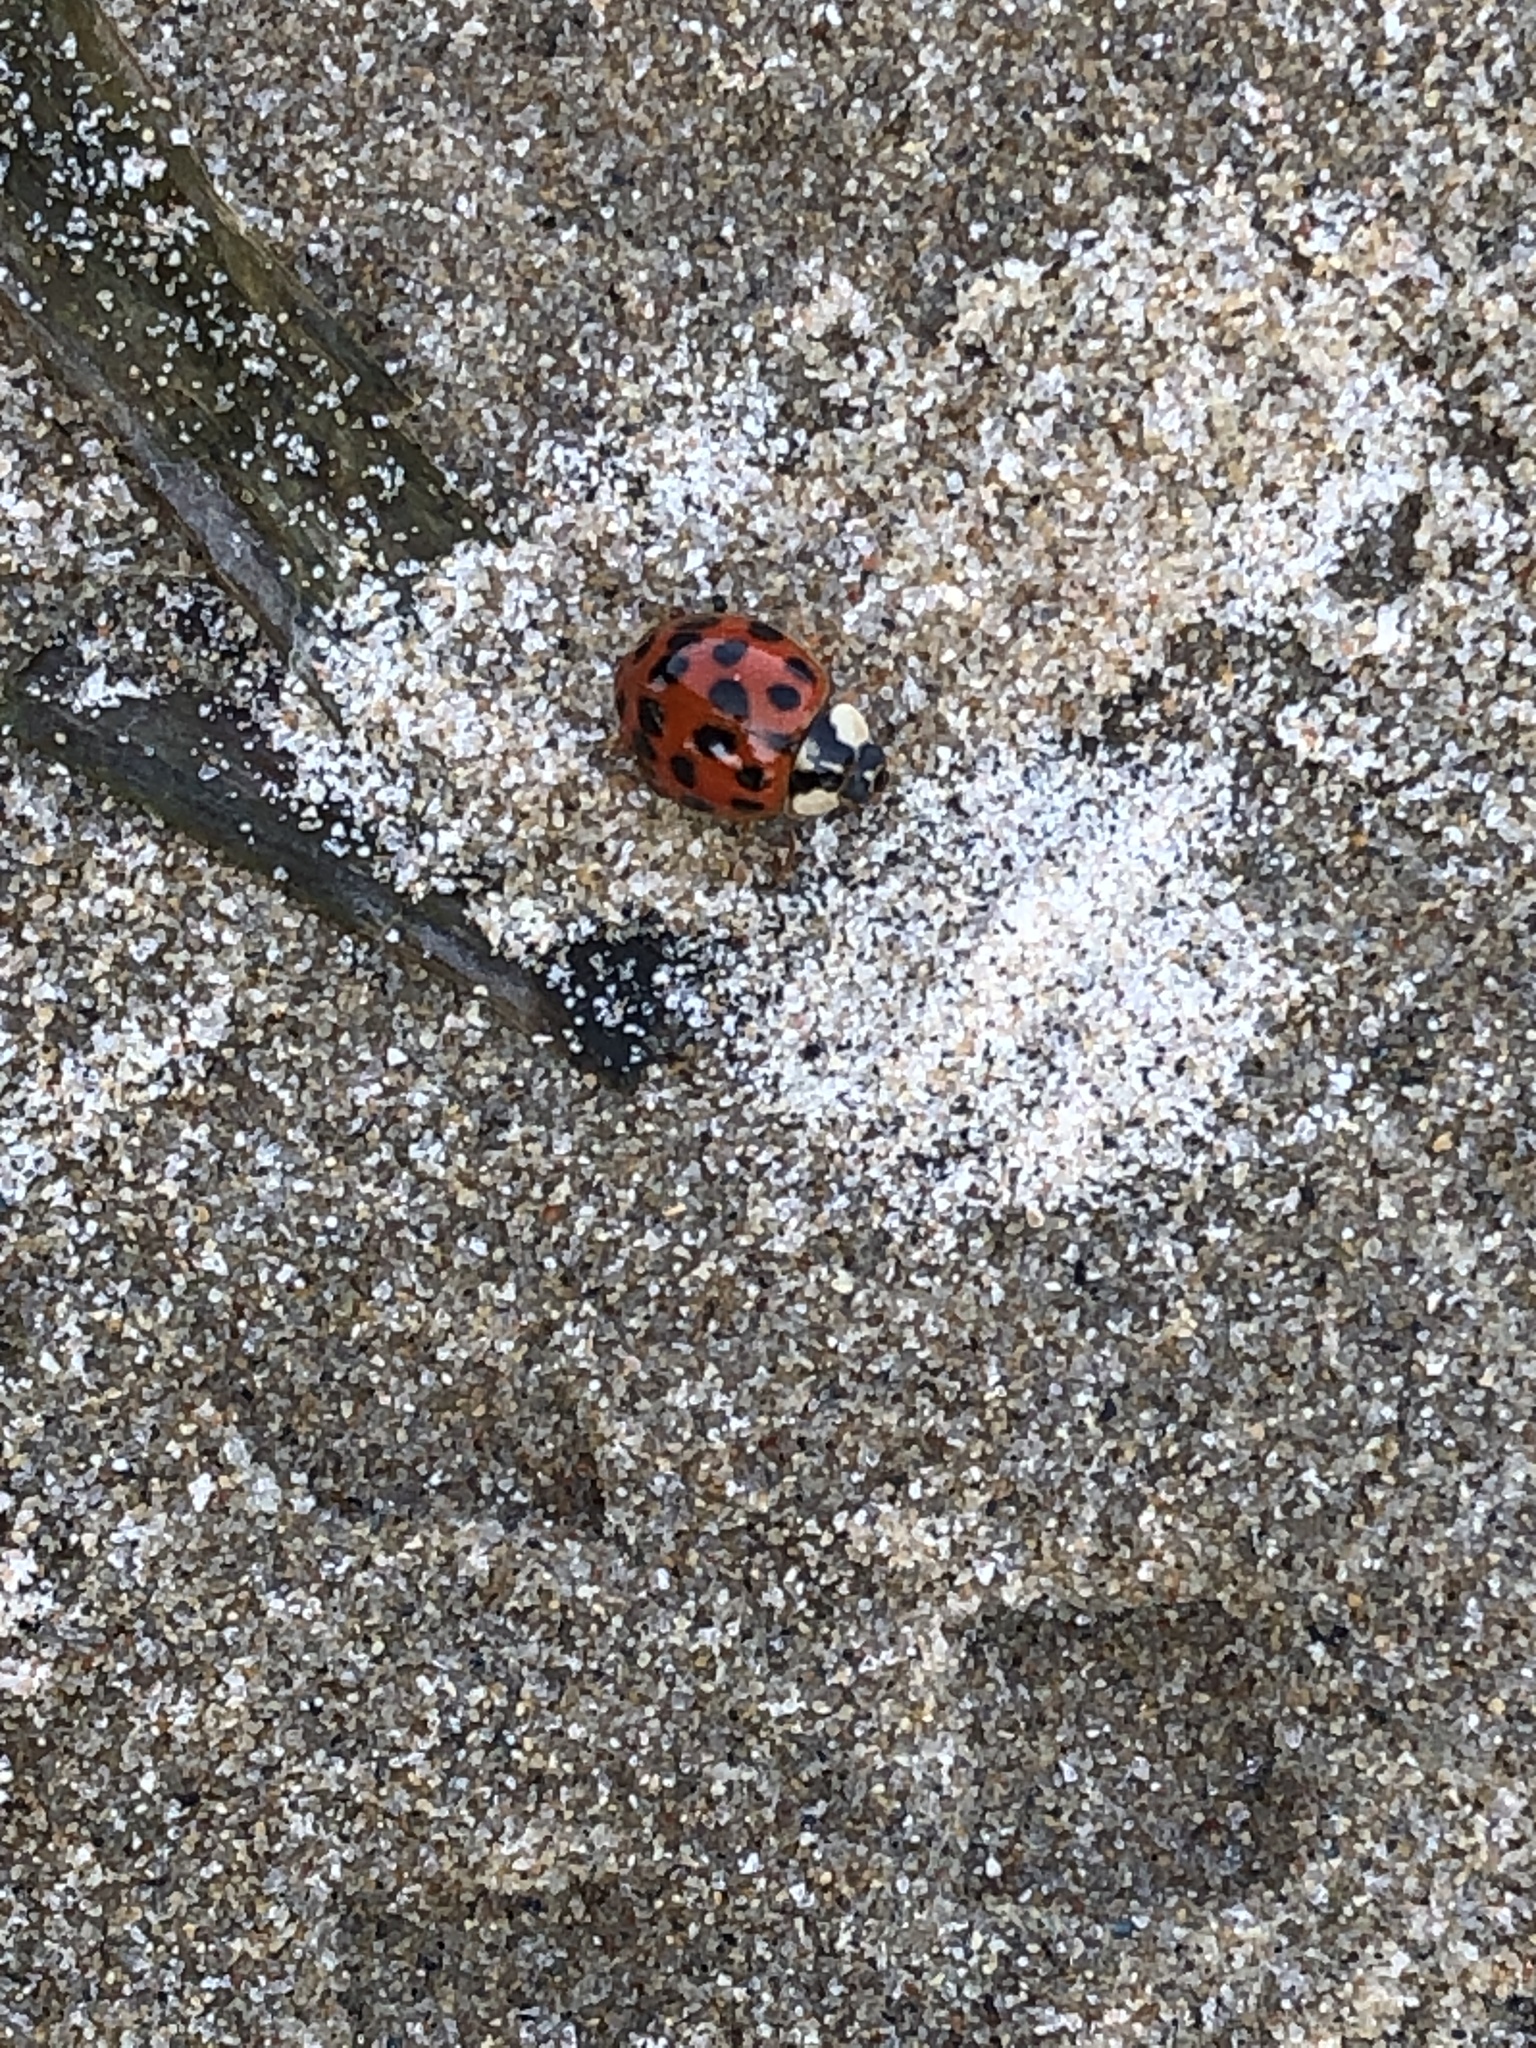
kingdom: Animalia
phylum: Arthropoda
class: Insecta
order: Coleoptera
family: Coccinellidae
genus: Harmonia
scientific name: Harmonia axyridis
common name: Harlequin ladybird
